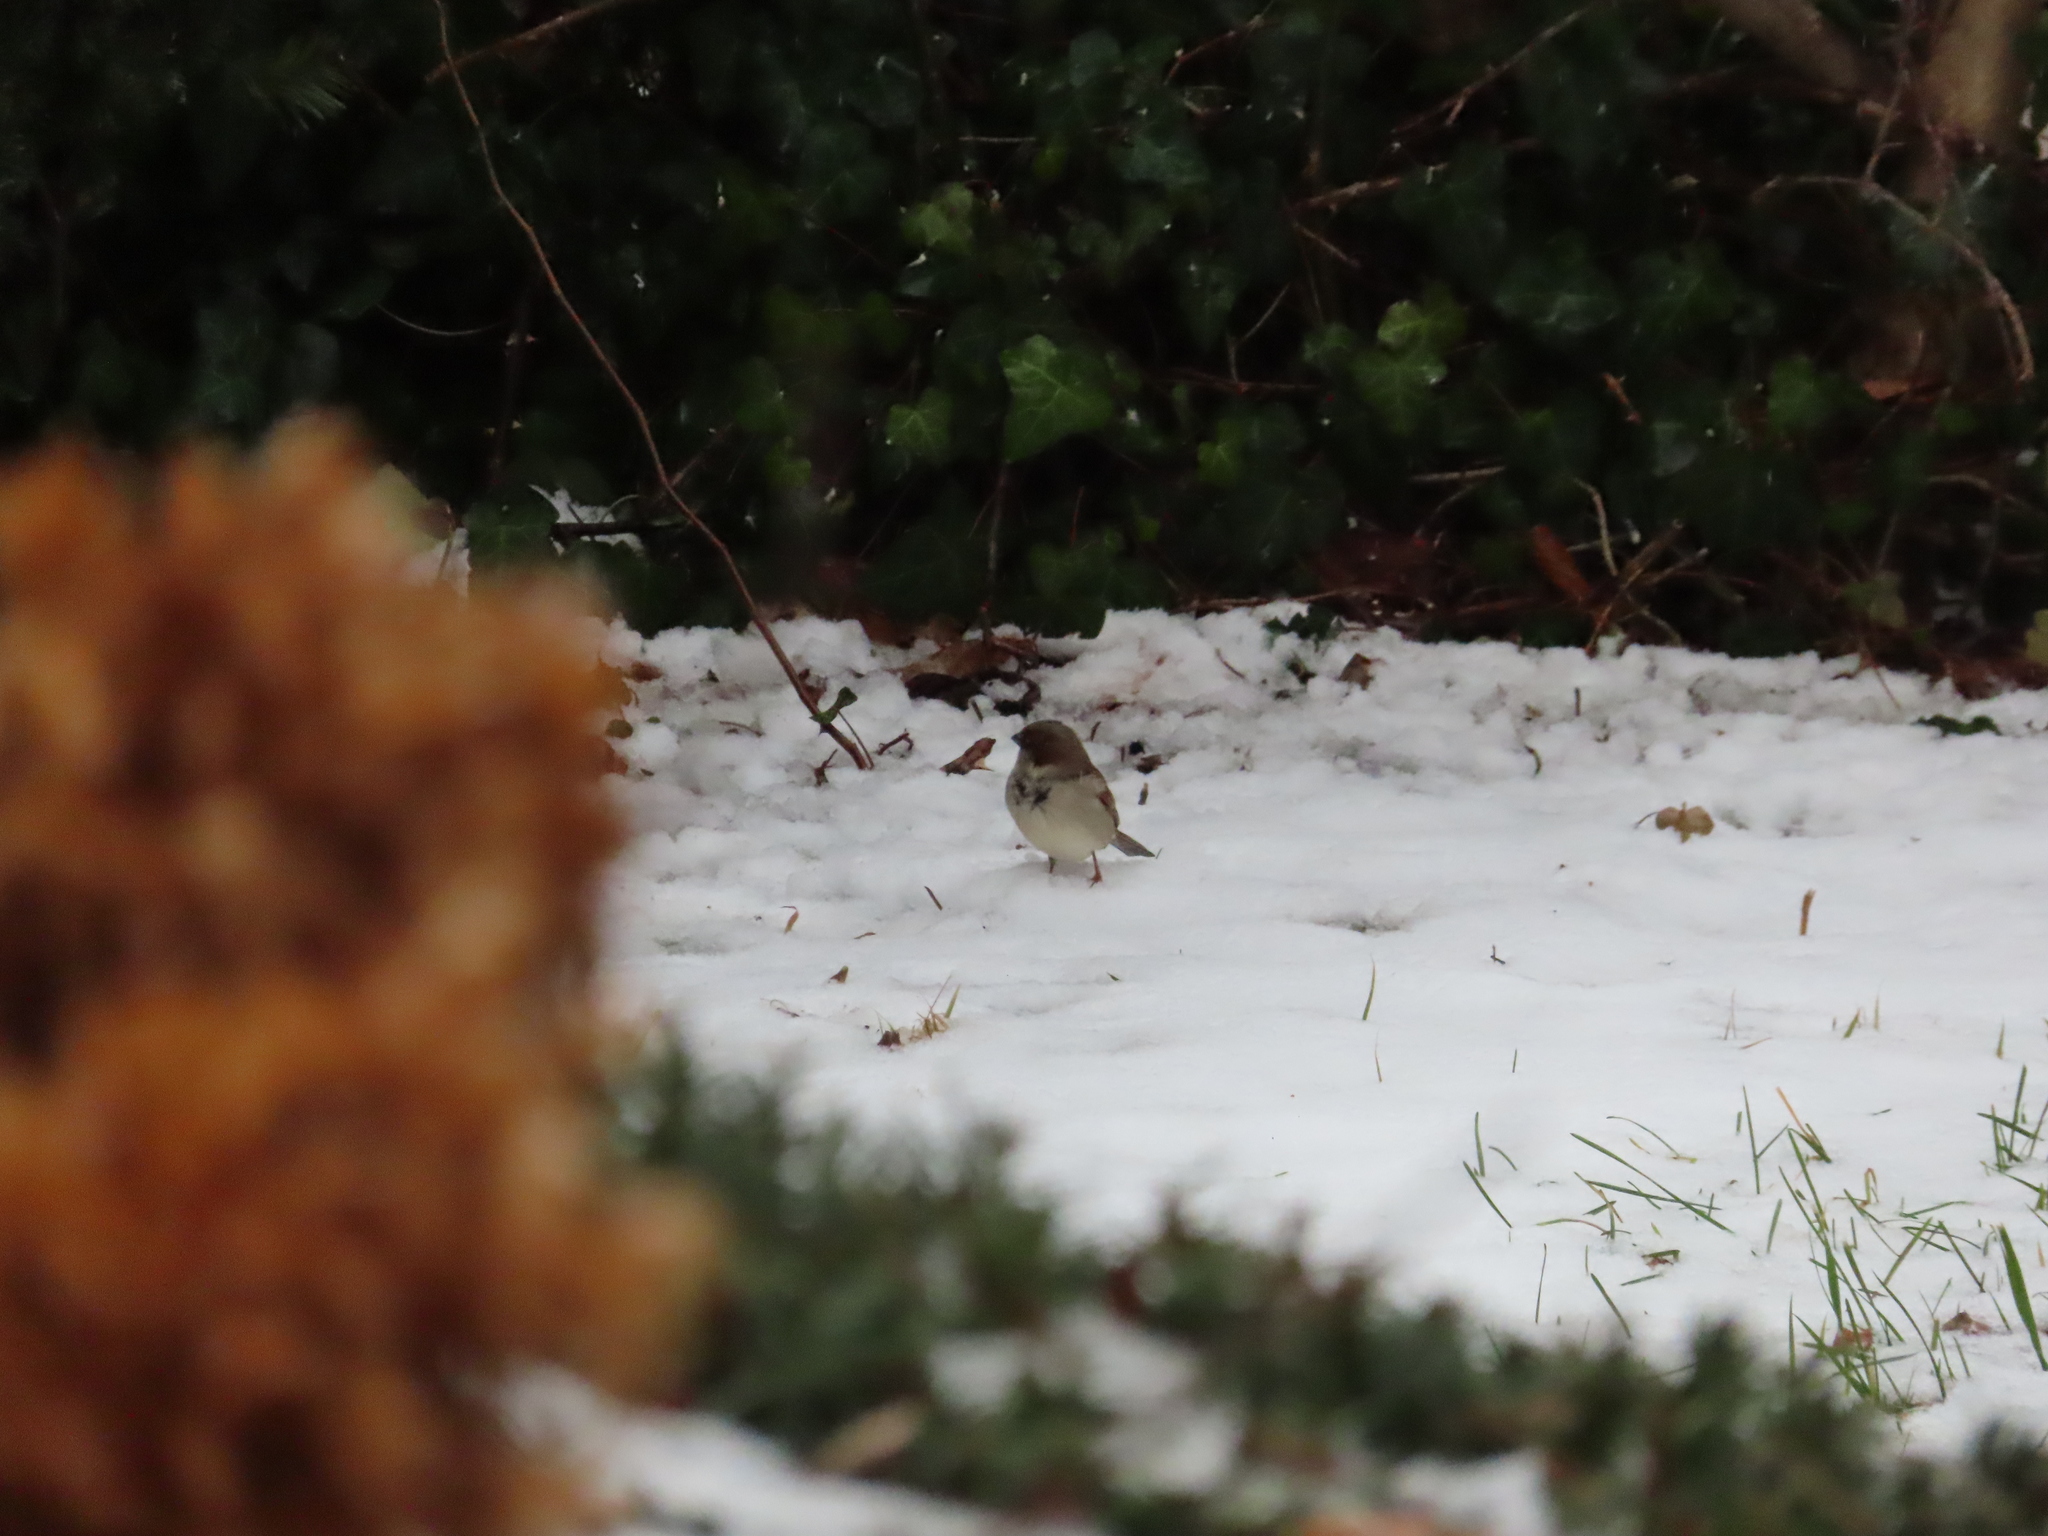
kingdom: Animalia
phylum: Chordata
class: Aves
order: Passeriformes
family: Passeridae
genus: Passer
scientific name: Passer domesticus
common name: House sparrow
